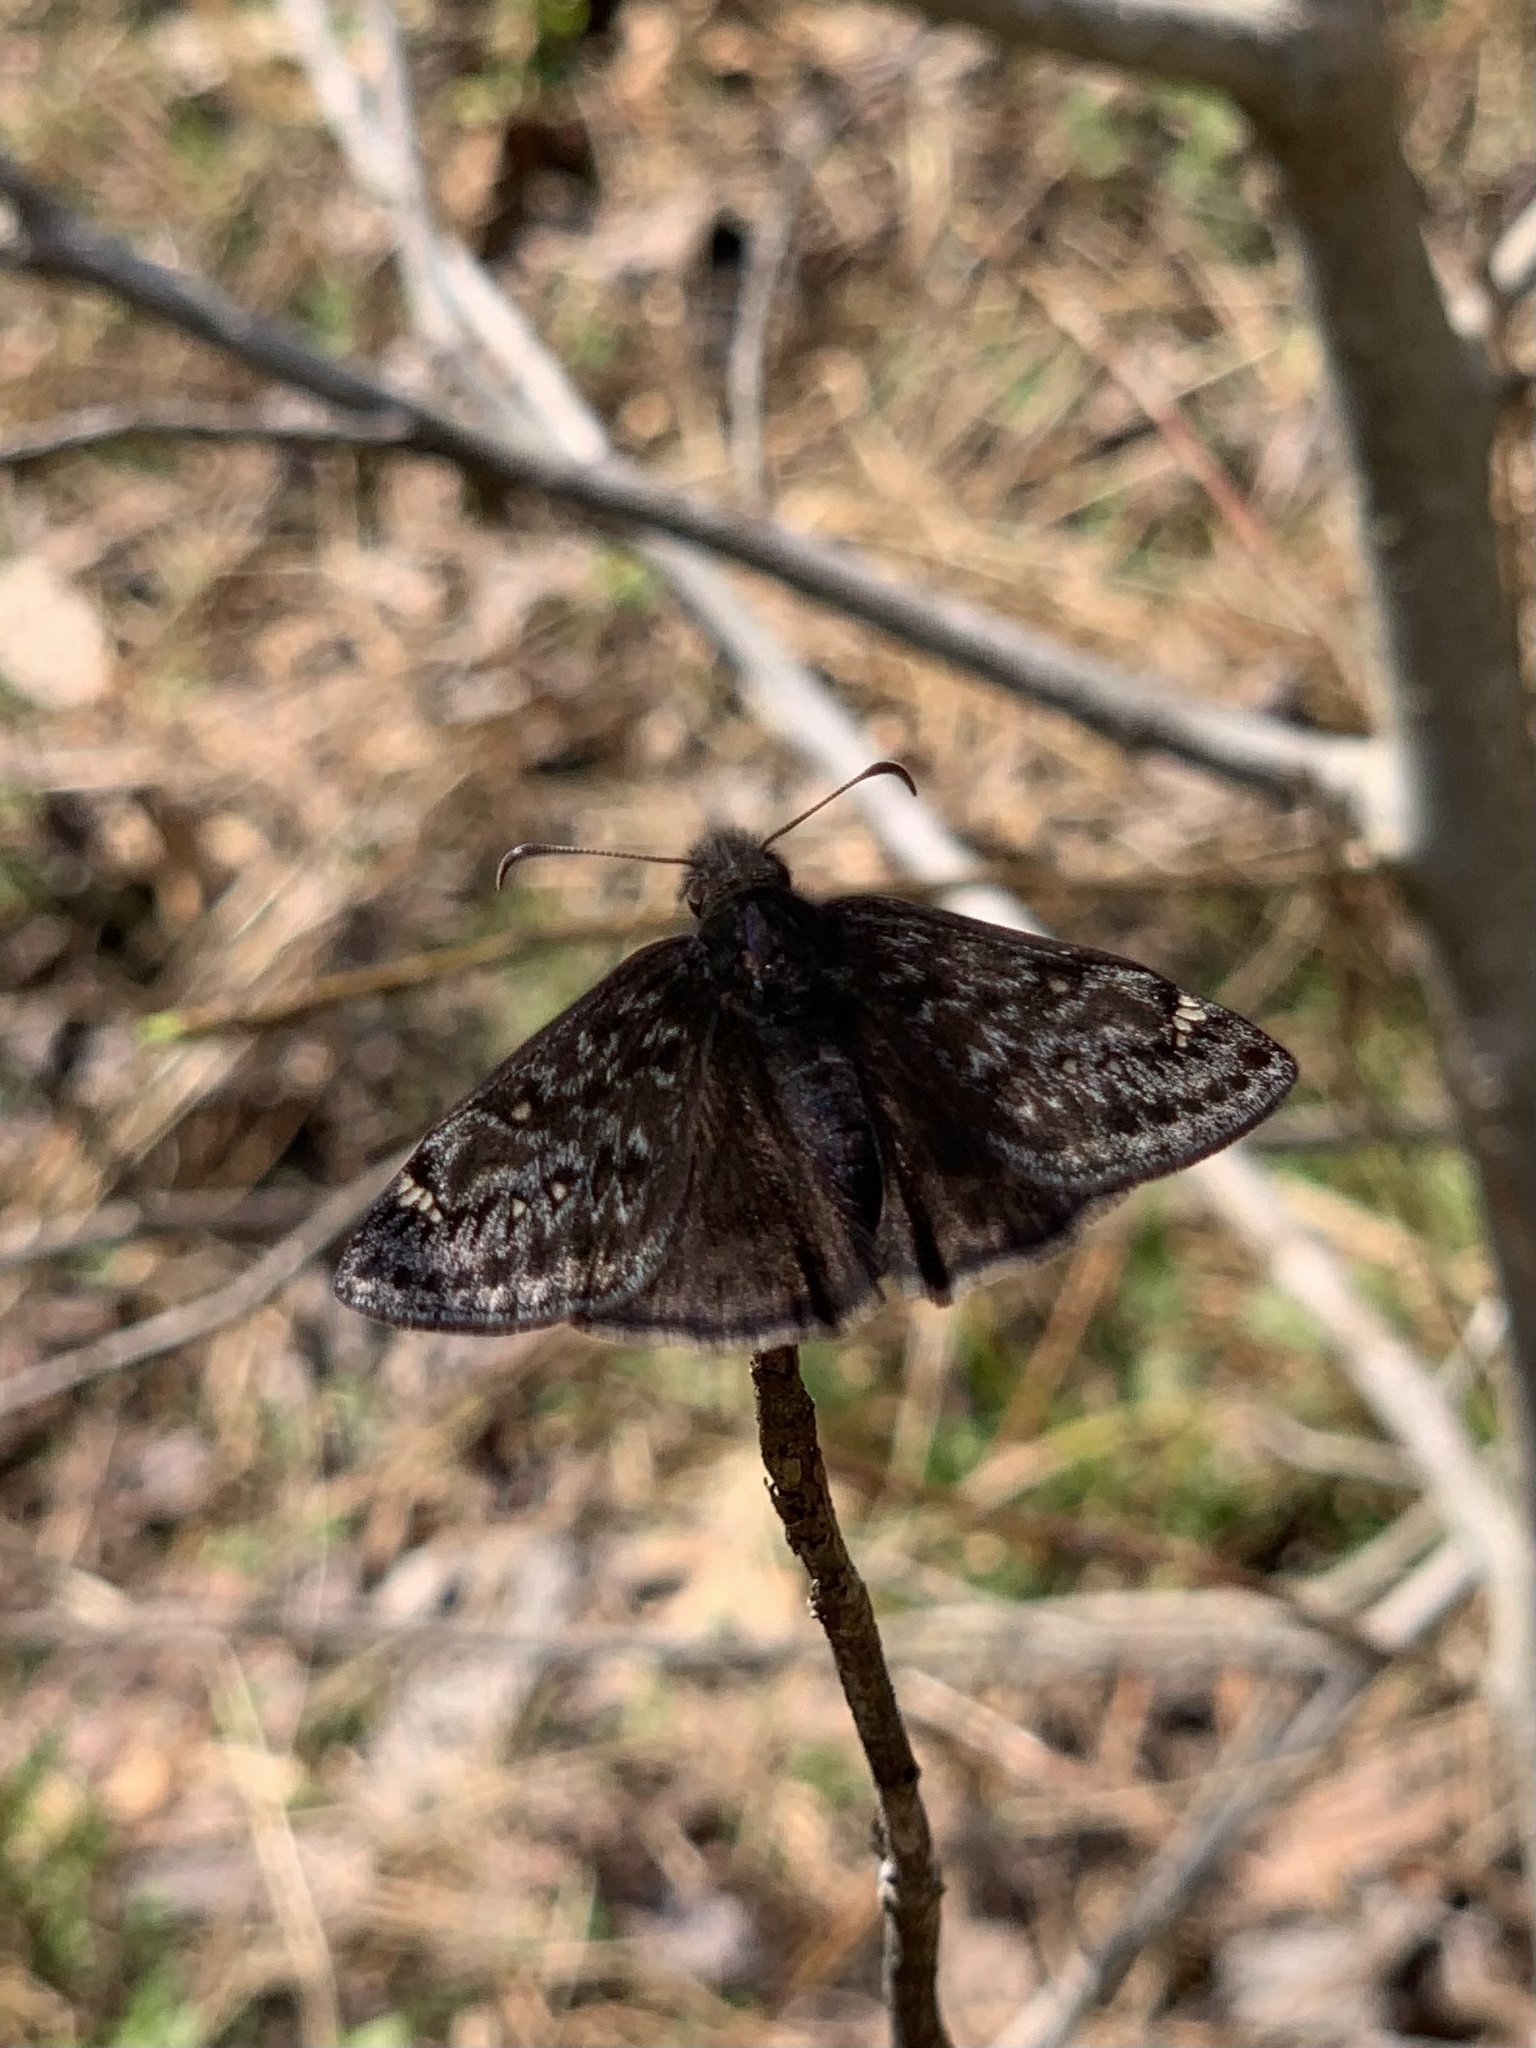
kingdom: Animalia
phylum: Arthropoda
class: Insecta
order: Lepidoptera
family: Hesperiidae
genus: Erynnis
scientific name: Erynnis juvenalis
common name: Juvenal's duskywing
